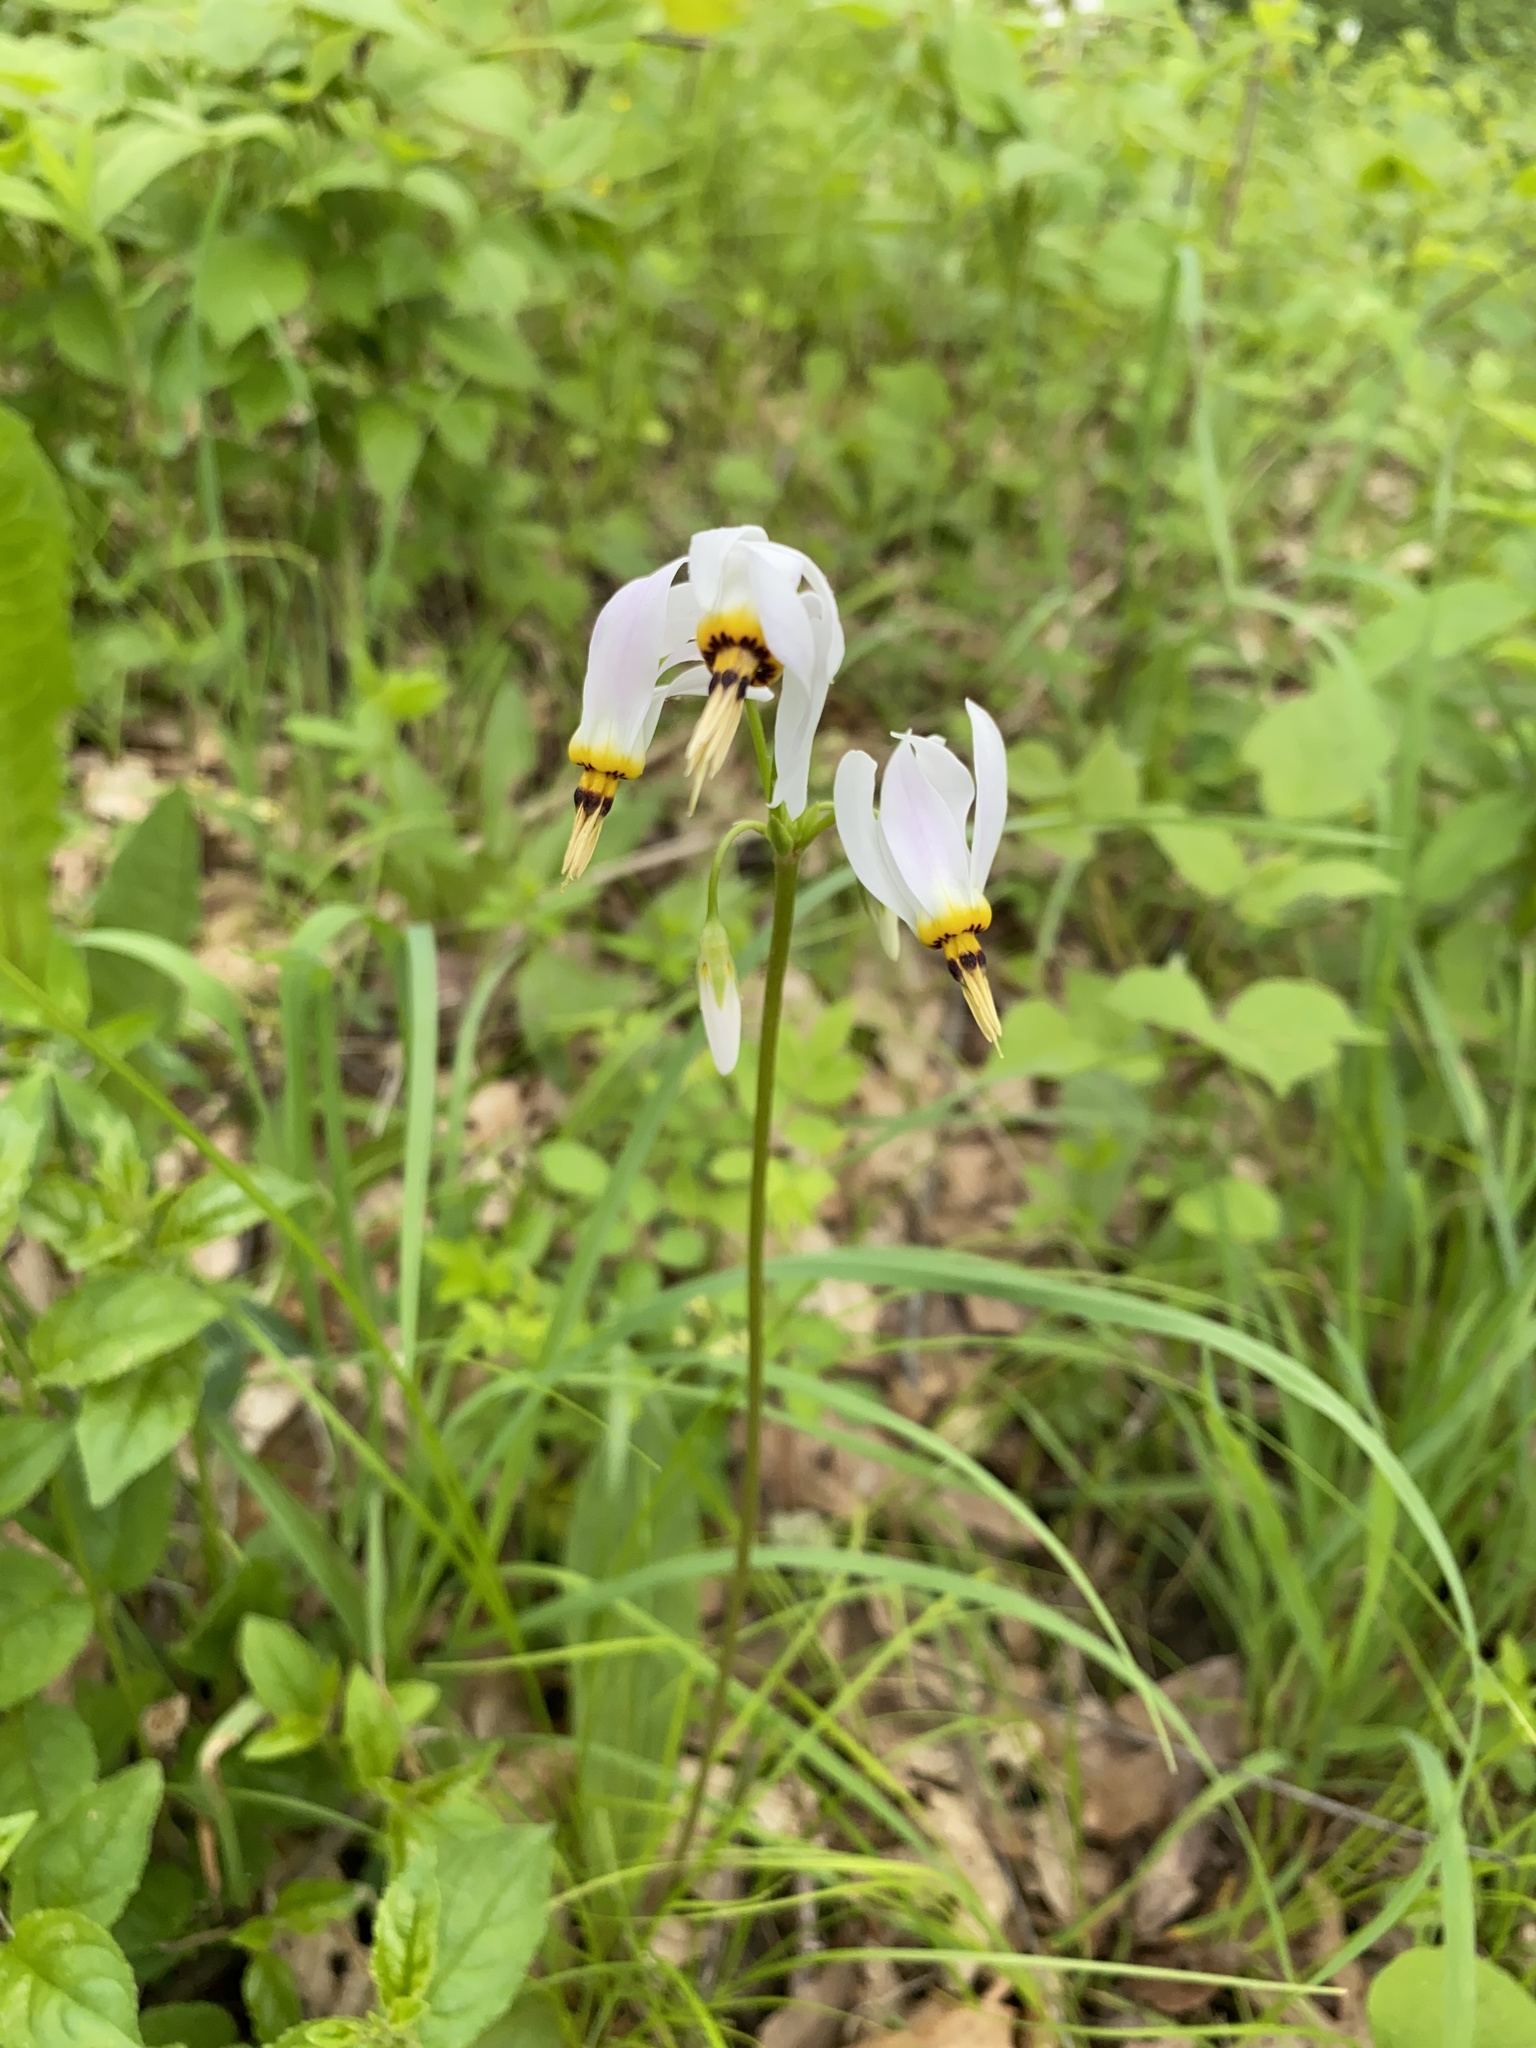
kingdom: Plantae
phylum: Tracheophyta
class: Magnoliopsida
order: Ericales
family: Primulaceae
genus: Dodecatheon
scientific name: Dodecatheon meadia
